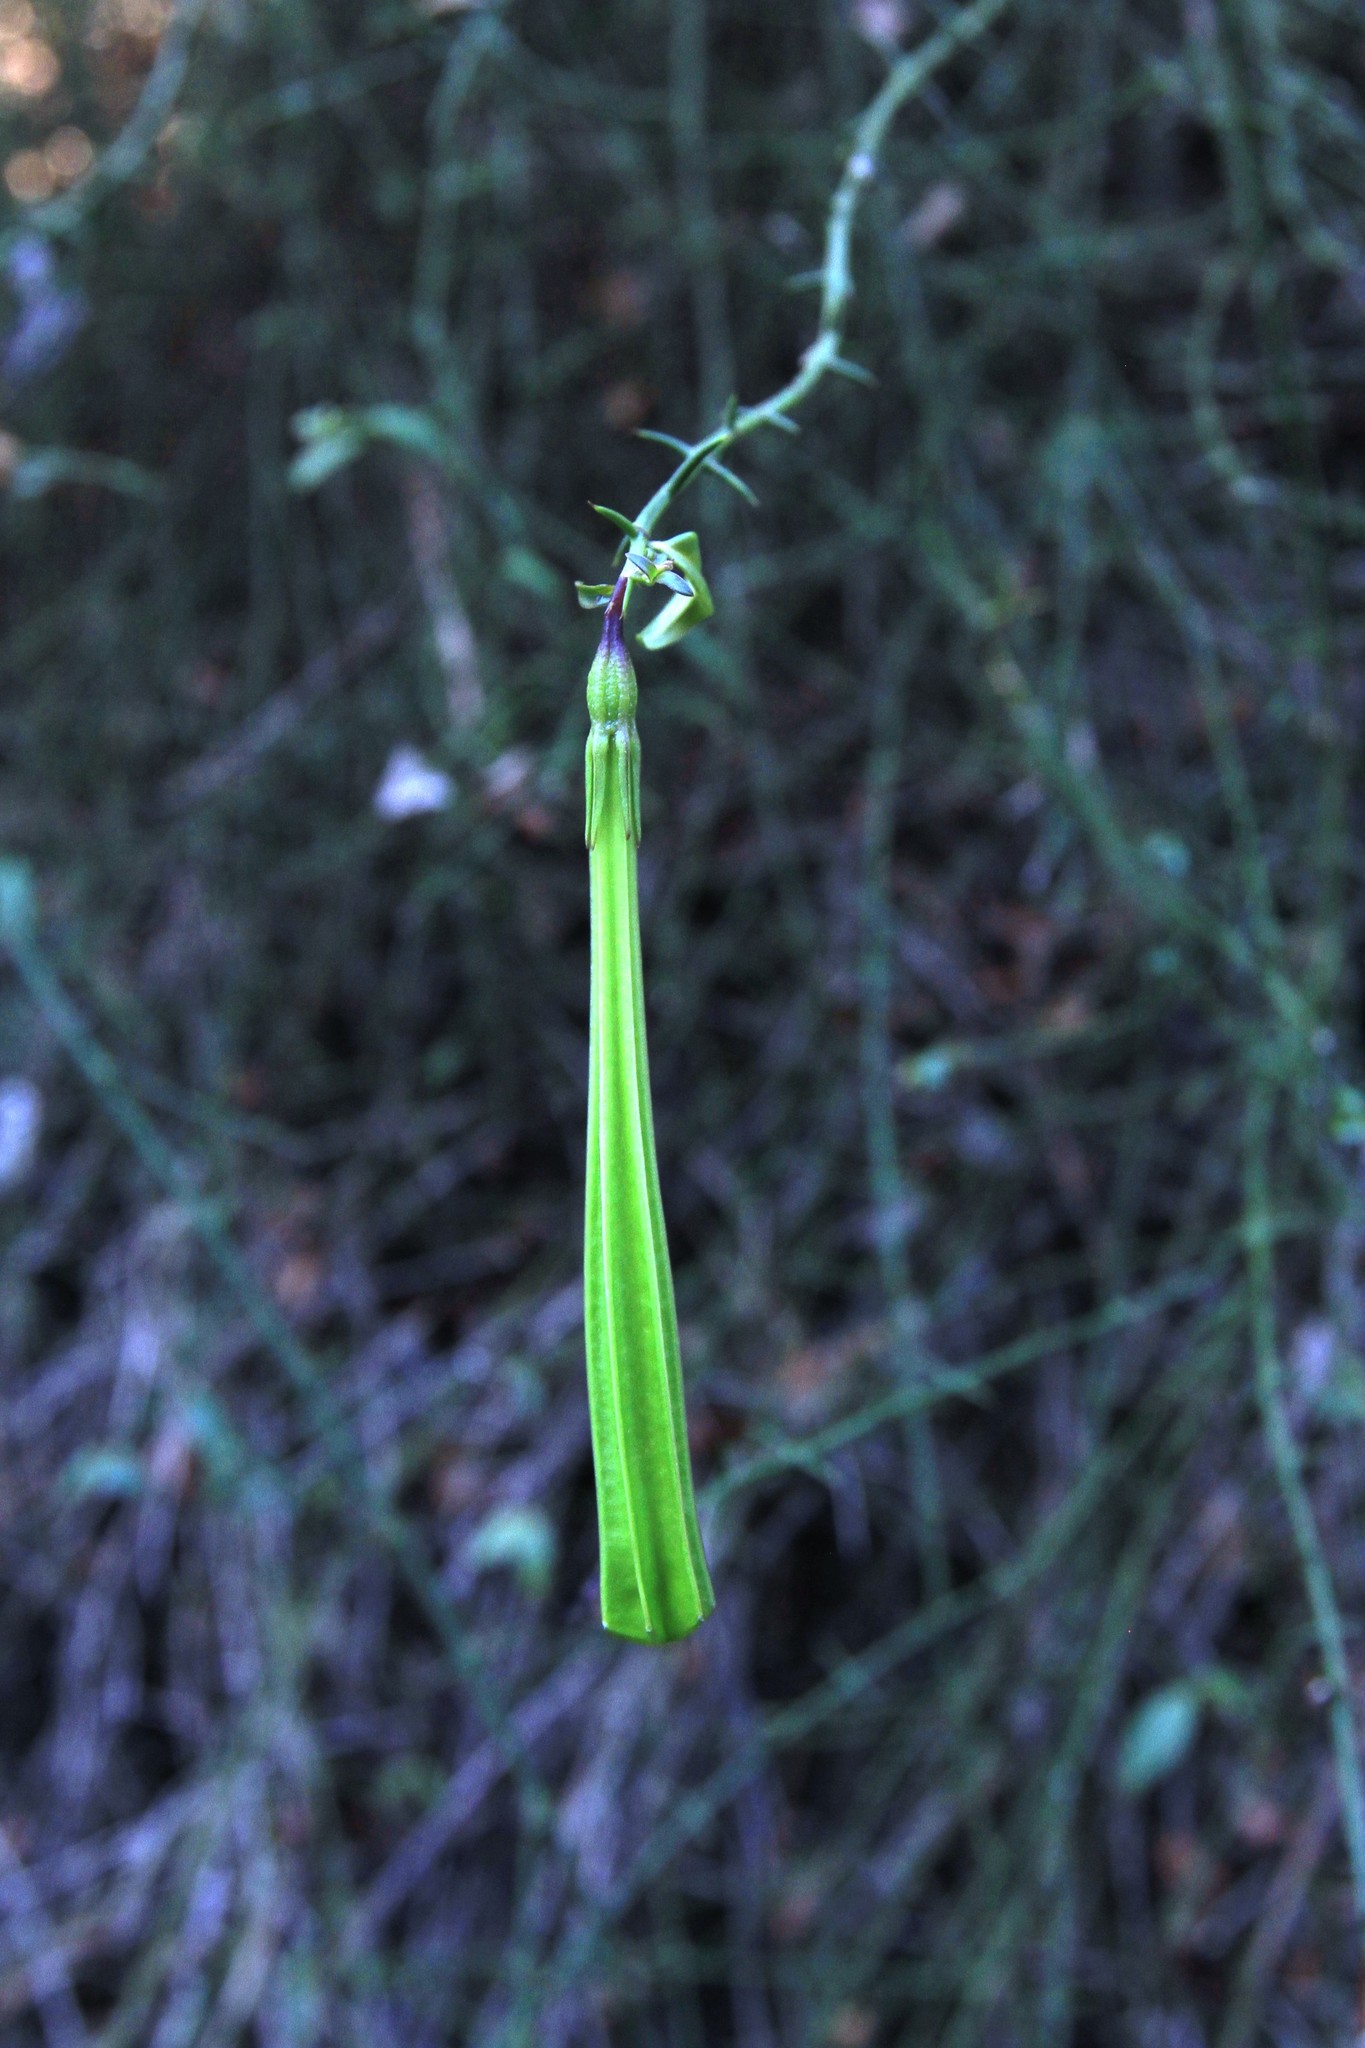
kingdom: Plantae
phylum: Tracheophyta
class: Magnoliopsida
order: Gentianales
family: Rubiaceae
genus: Catesbaea
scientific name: Catesbaea ekmaniana
